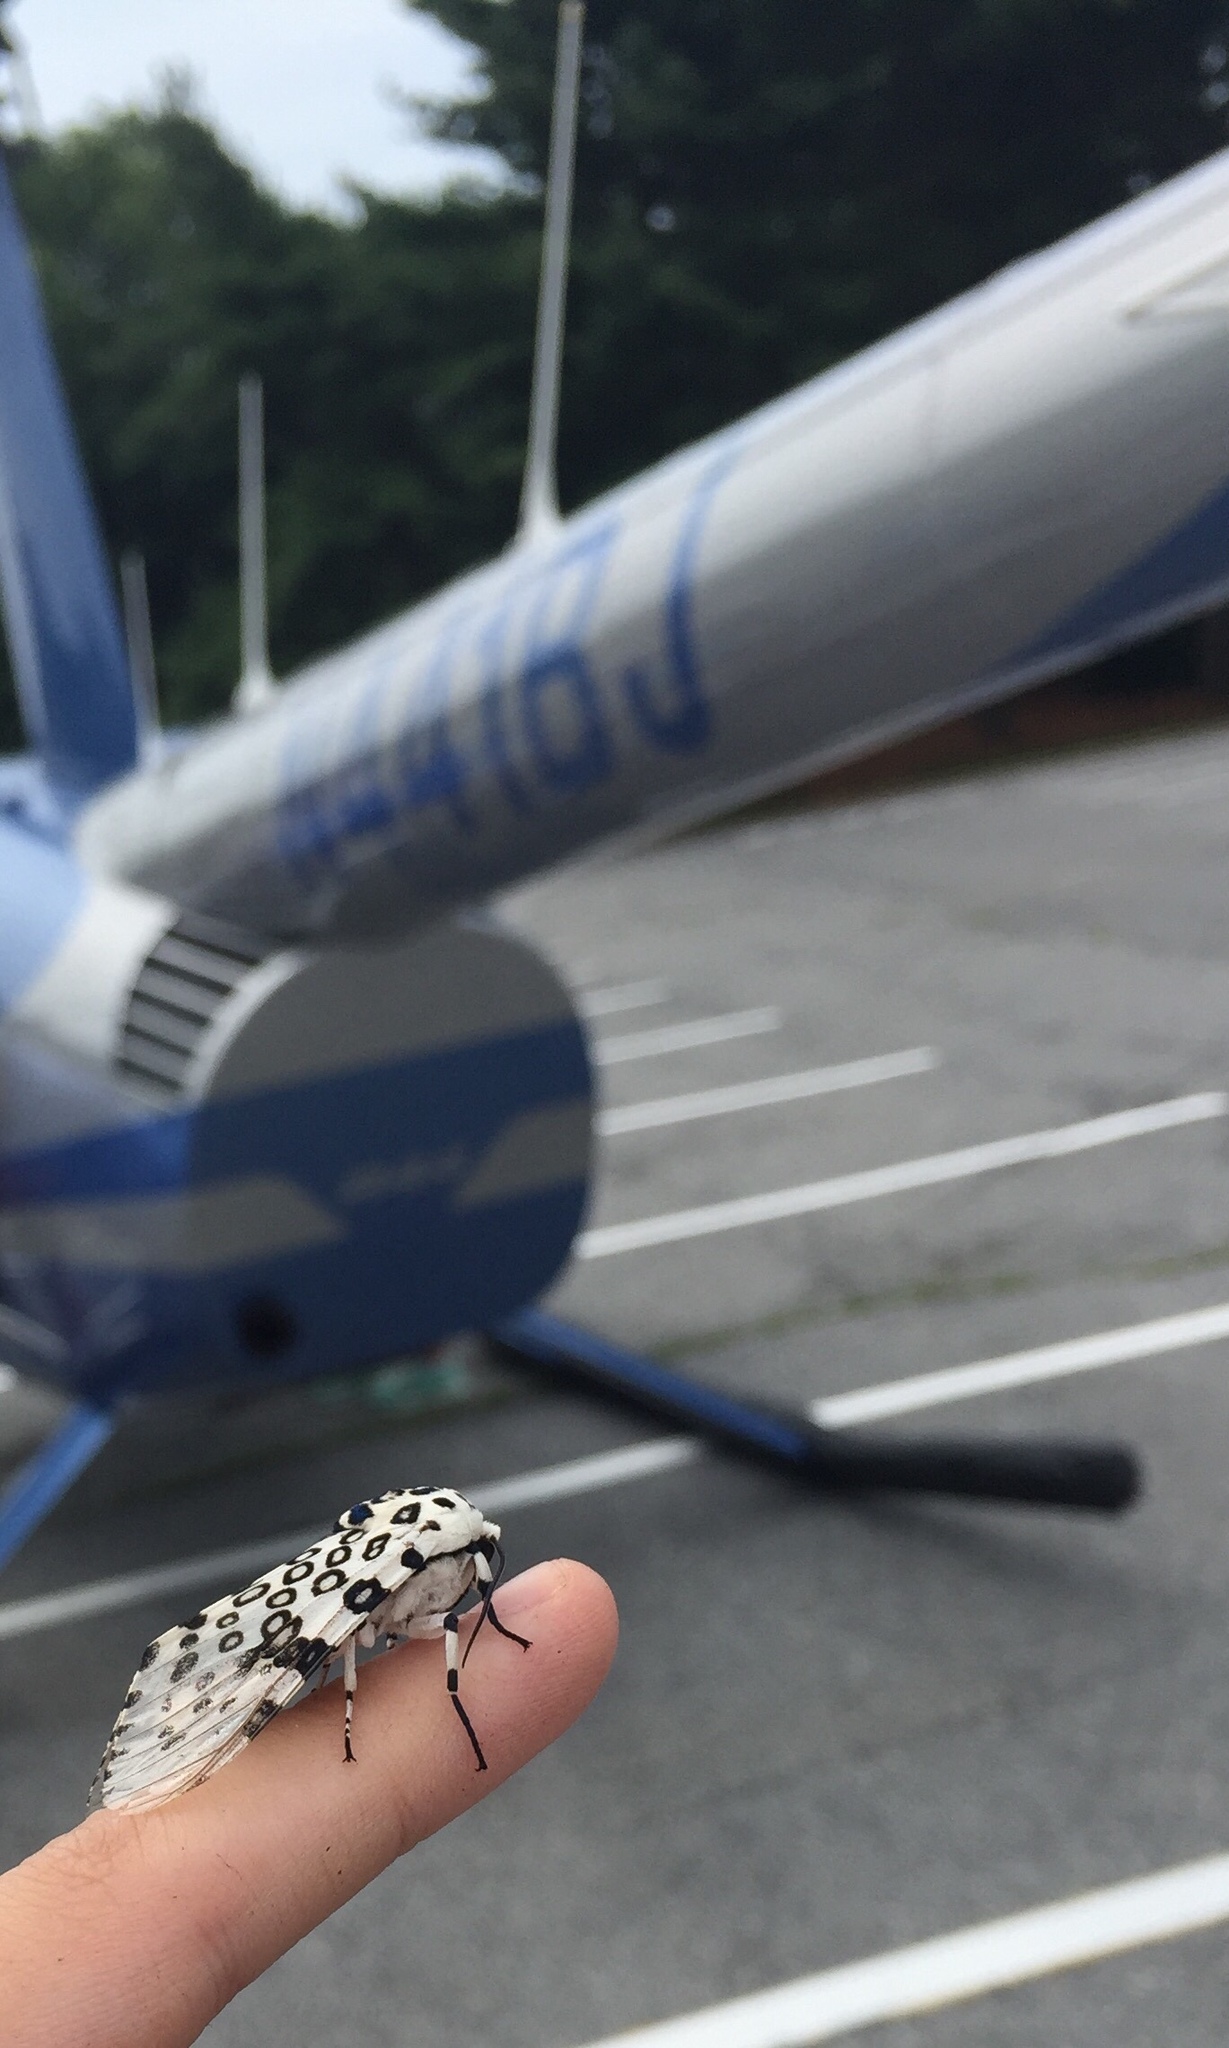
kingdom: Animalia
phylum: Arthropoda
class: Insecta
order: Lepidoptera
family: Erebidae
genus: Hypercompe
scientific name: Hypercompe scribonia
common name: Giant leopard moth
